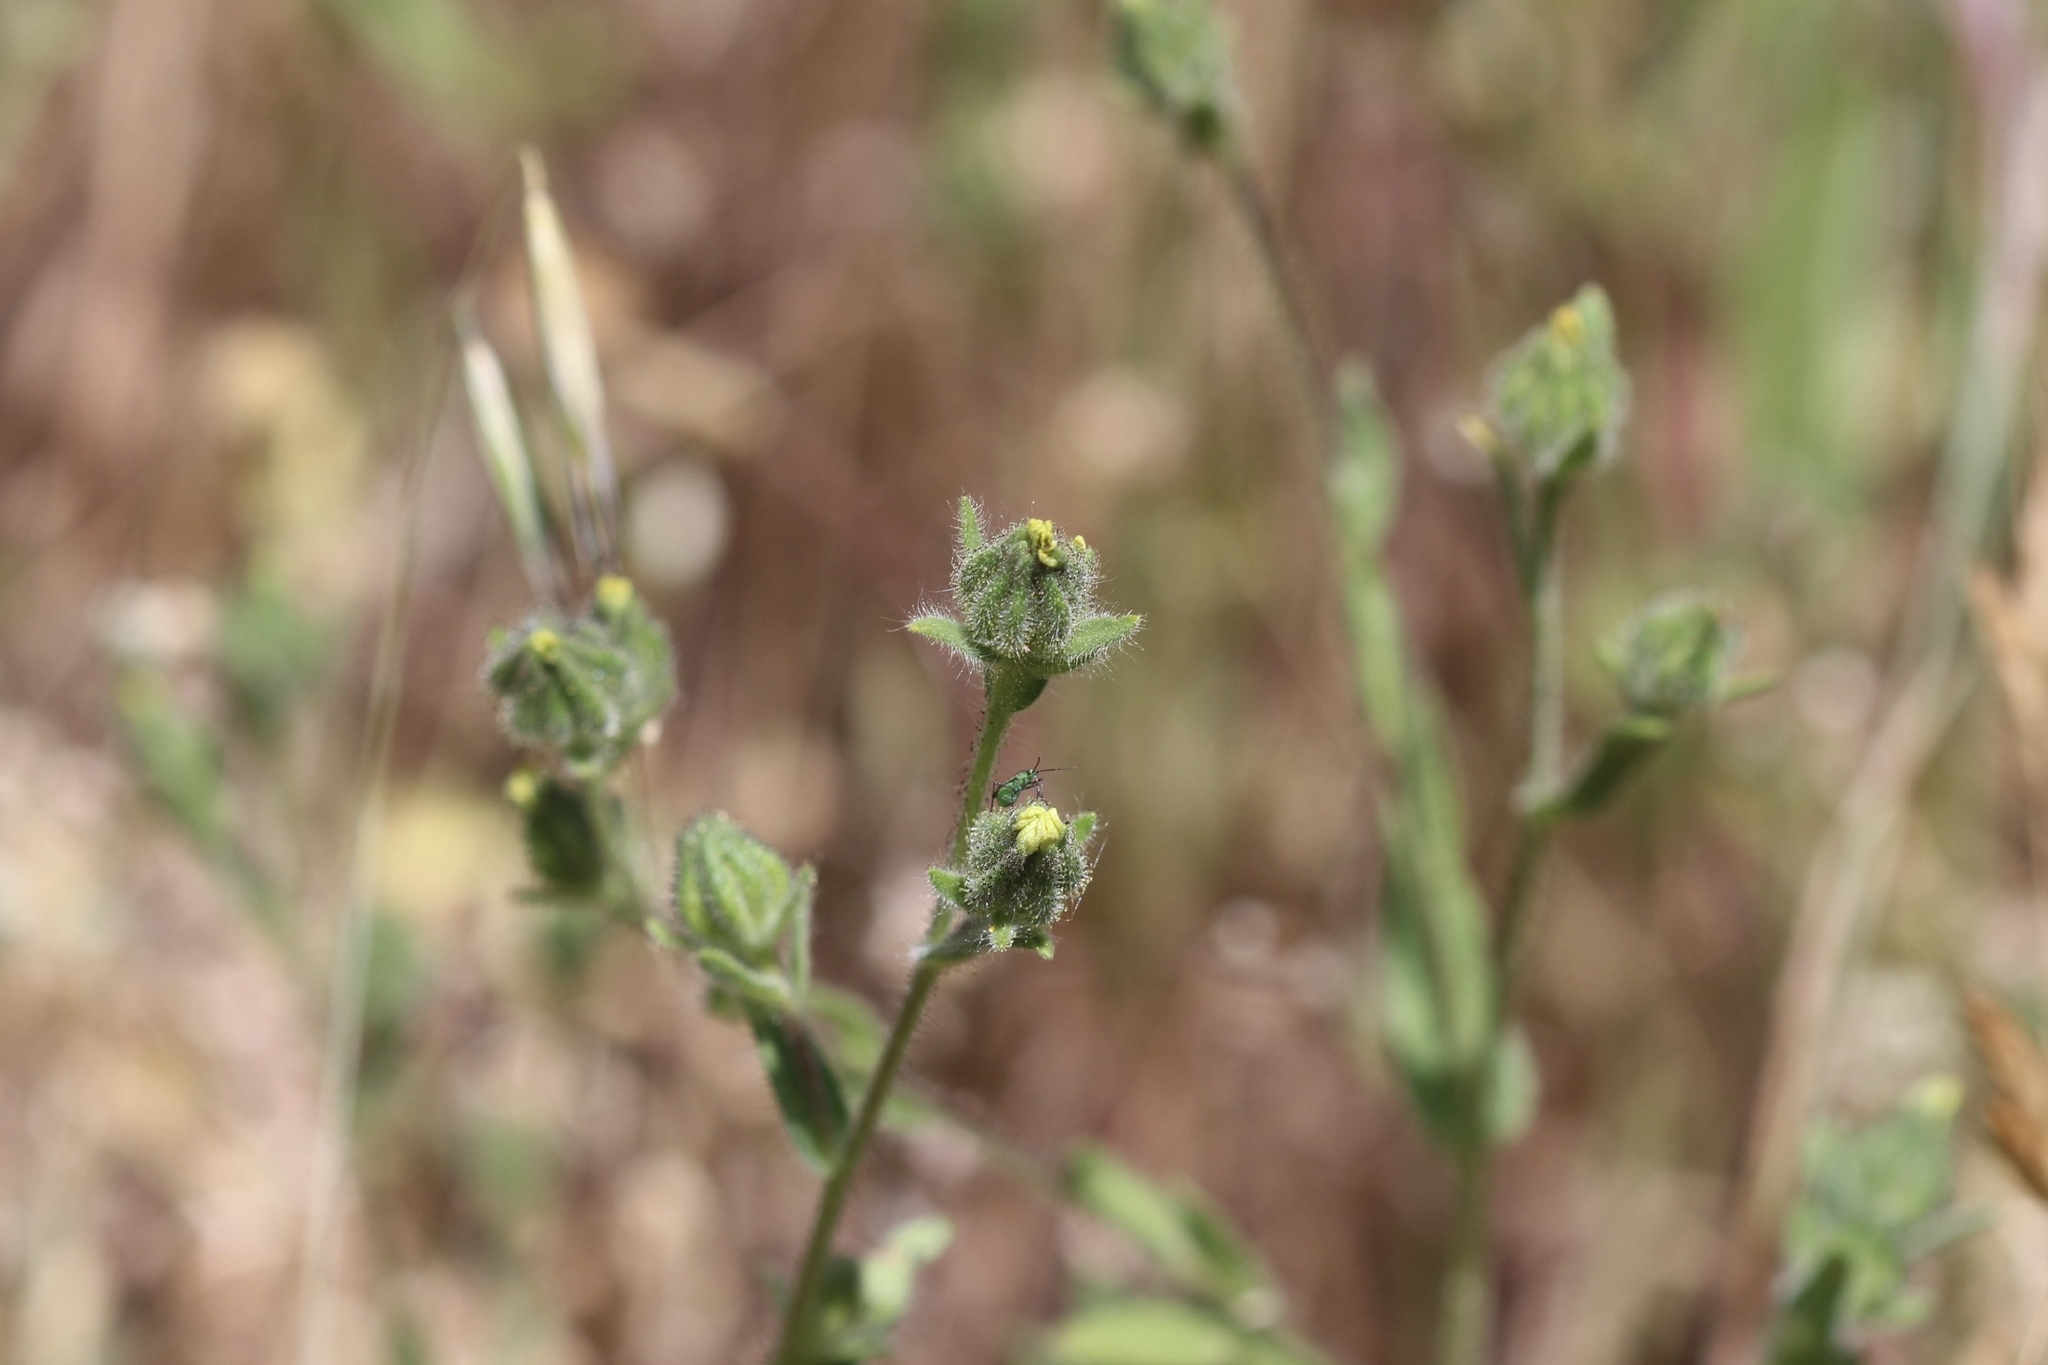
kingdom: Plantae
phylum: Tracheophyta
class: Magnoliopsida
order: Asterales
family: Asteraceae
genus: Madia
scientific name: Madia gracilis
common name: Grassy tarweed
